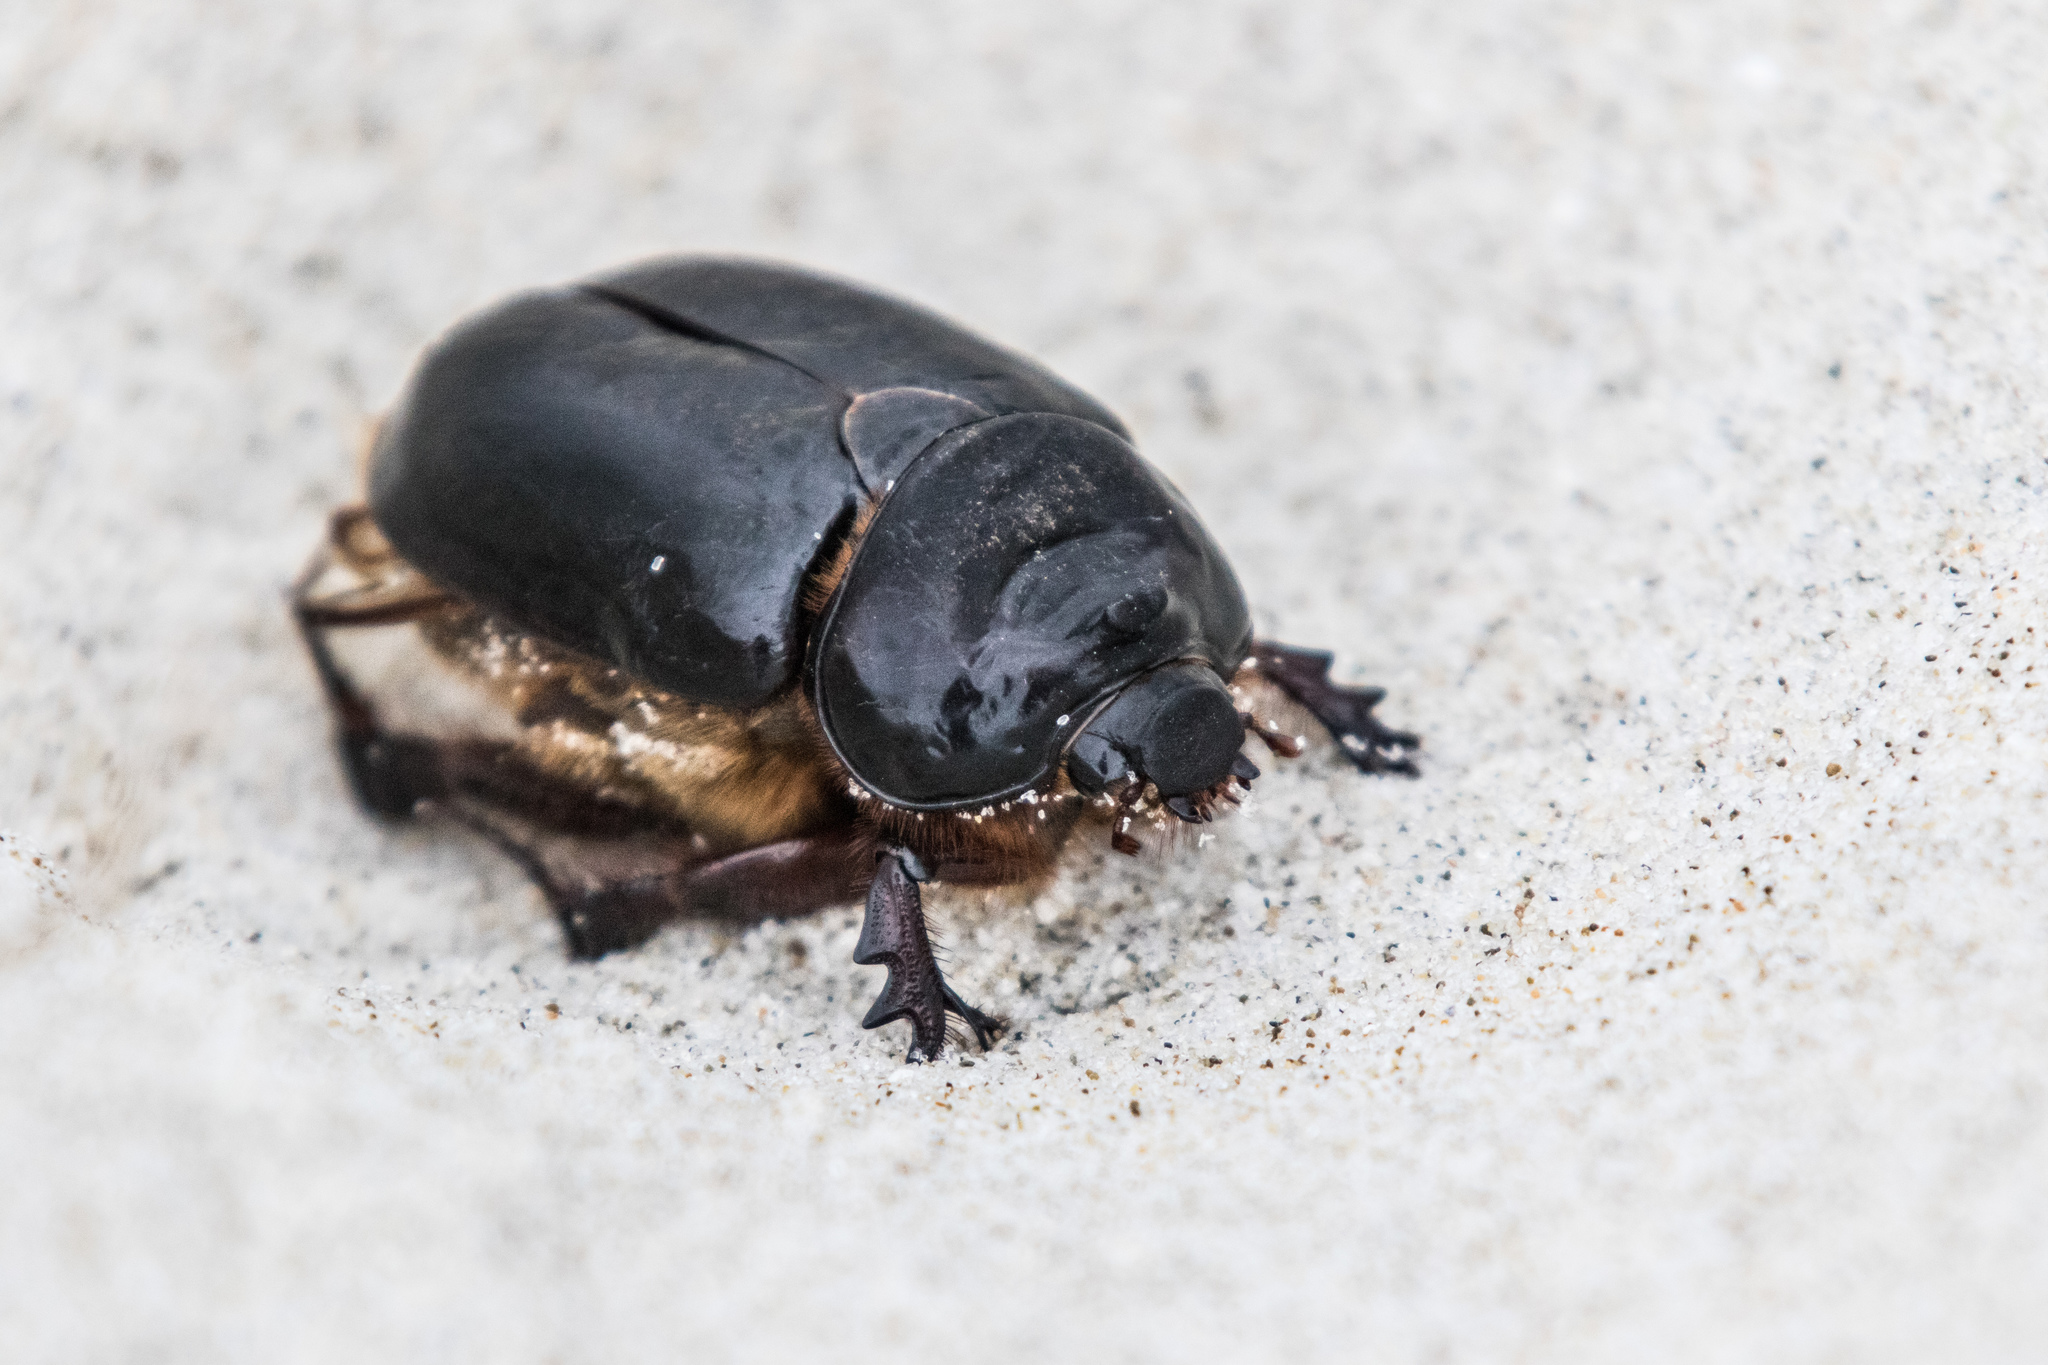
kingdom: Animalia
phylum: Arthropoda
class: Insecta
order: Coleoptera
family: Scarabaeidae
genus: Pericoptus
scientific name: Pericoptus truncatus
